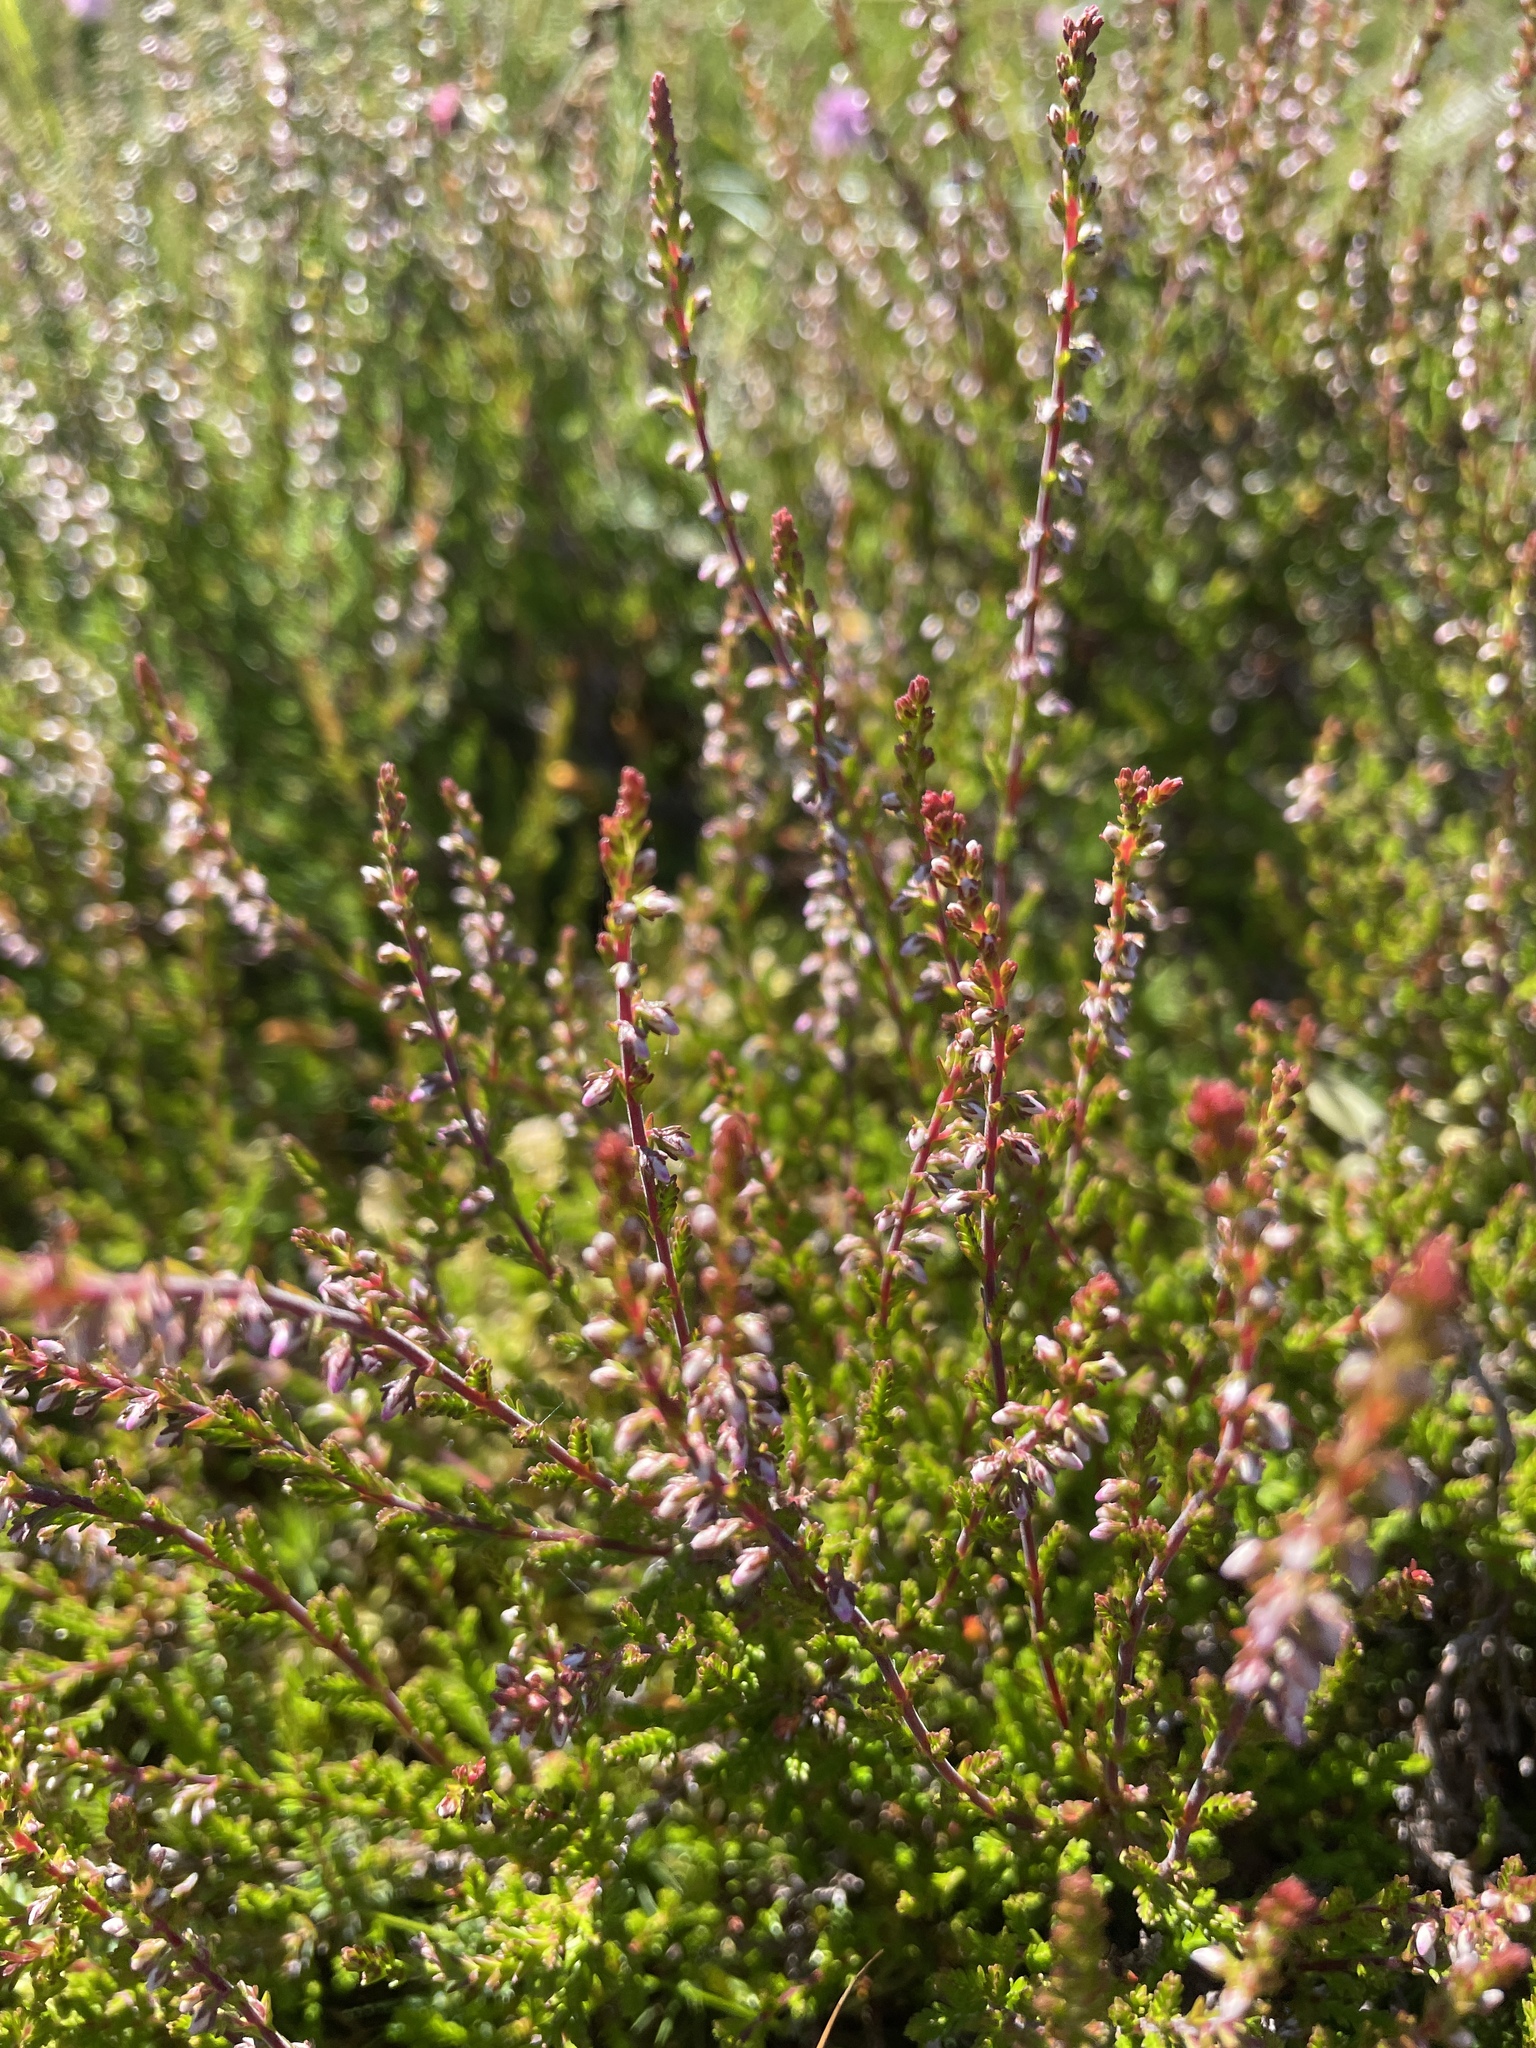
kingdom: Plantae
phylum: Tracheophyta
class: Magnoliopsida
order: Ericales
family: Ericaceae
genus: Calluna
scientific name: Calluna vulgaris
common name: Heather
